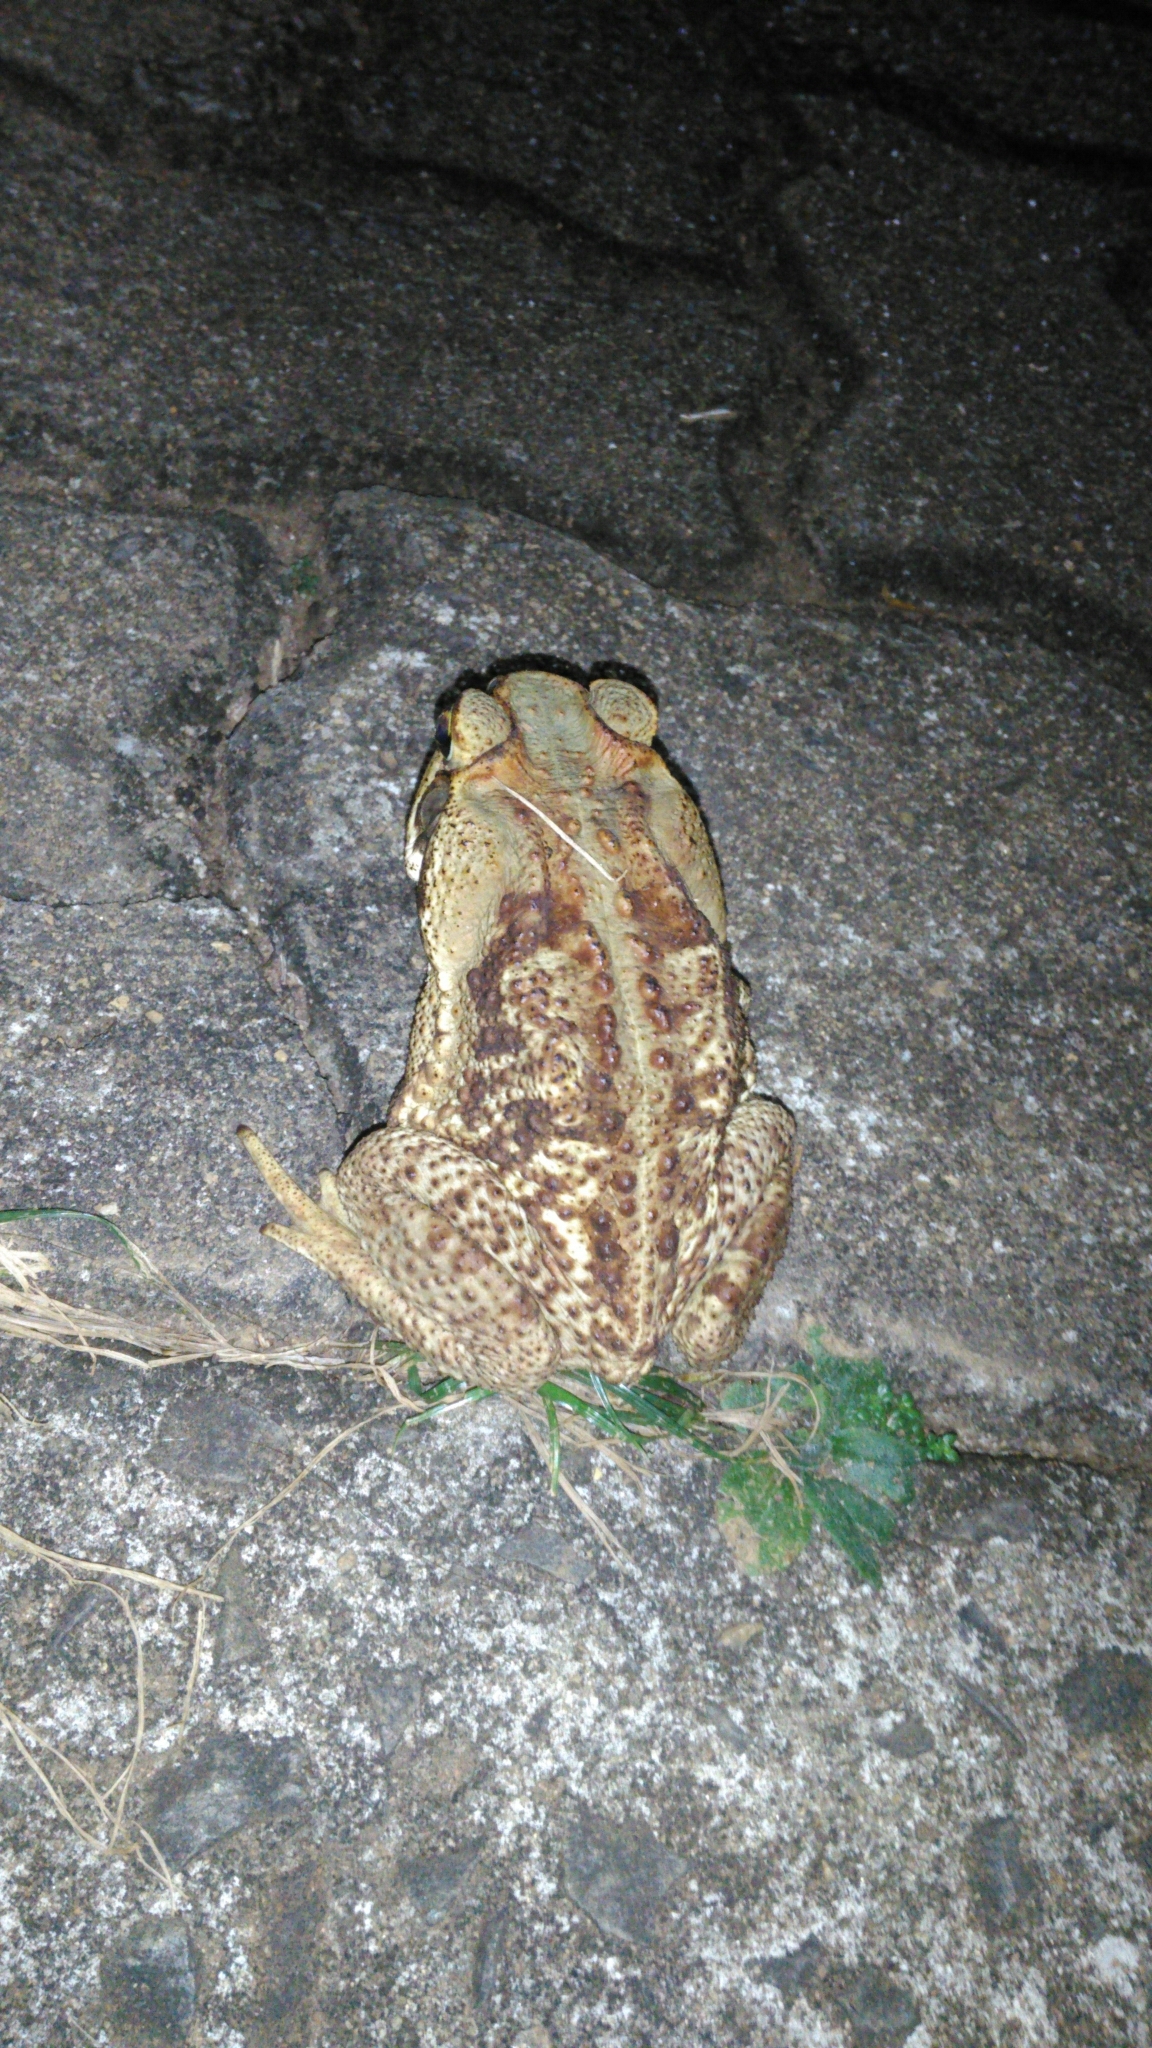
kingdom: Animalia
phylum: Chordata
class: Amphibia
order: Anura
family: Bufonidae
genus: Rhinella
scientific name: Rhinella diptycha
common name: Cope's toad
